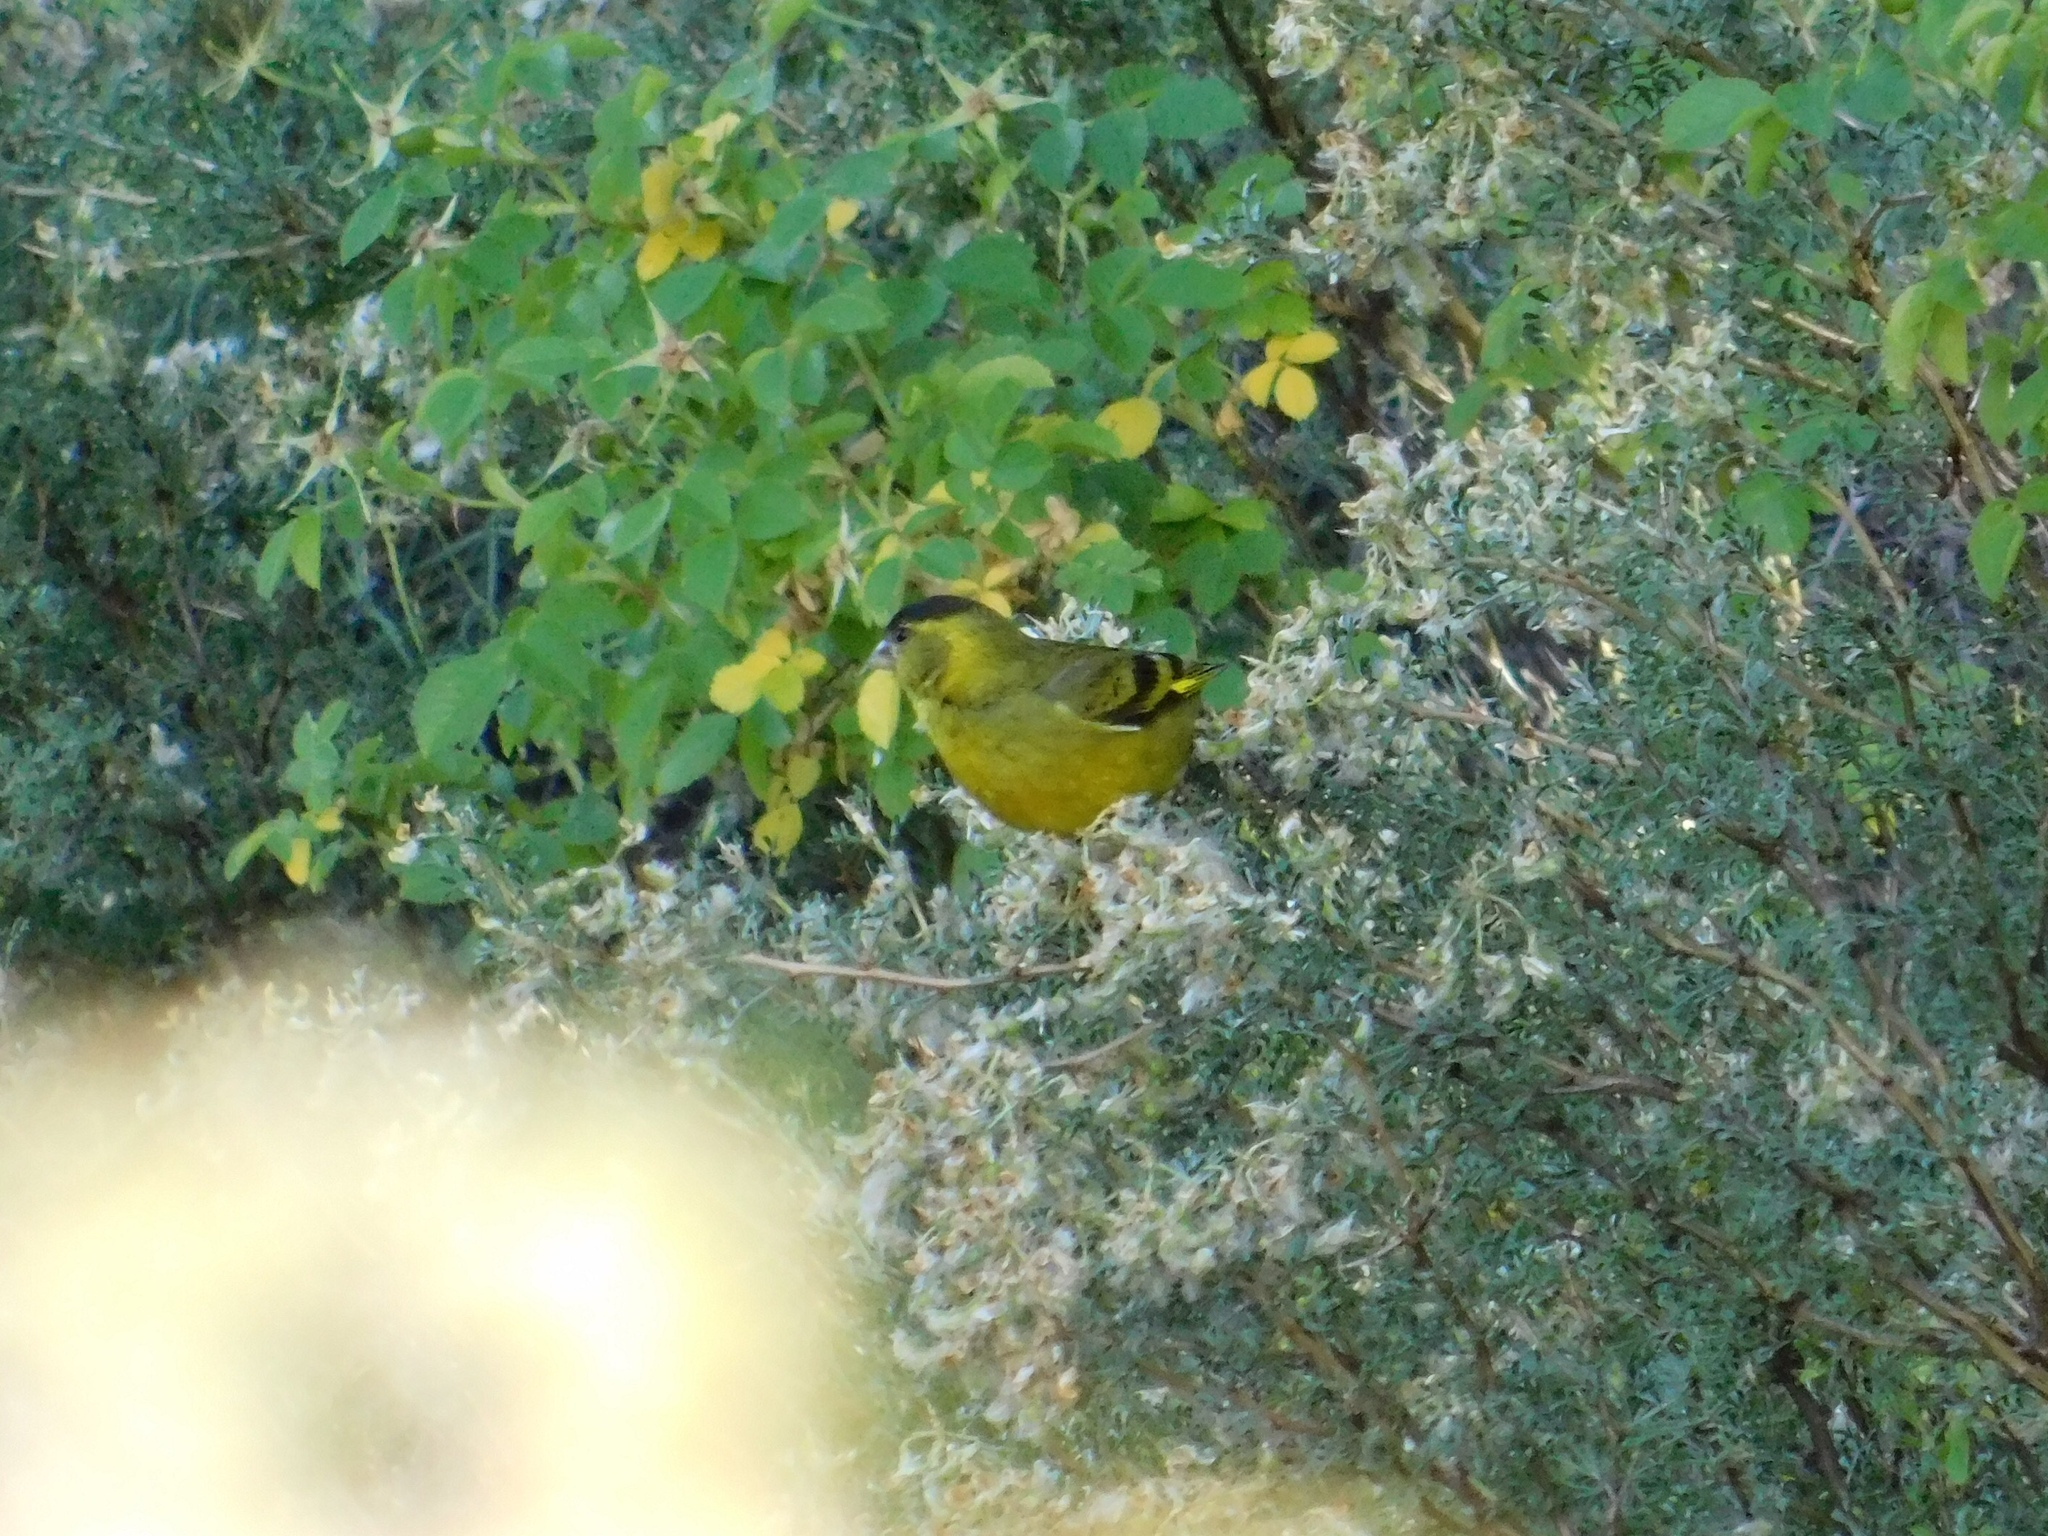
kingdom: Animalia
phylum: Chordata
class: Aves
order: Passeriformes
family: Fringillidae
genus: Spinus
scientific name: Spinus barbatus
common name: Black-chinned siskin
